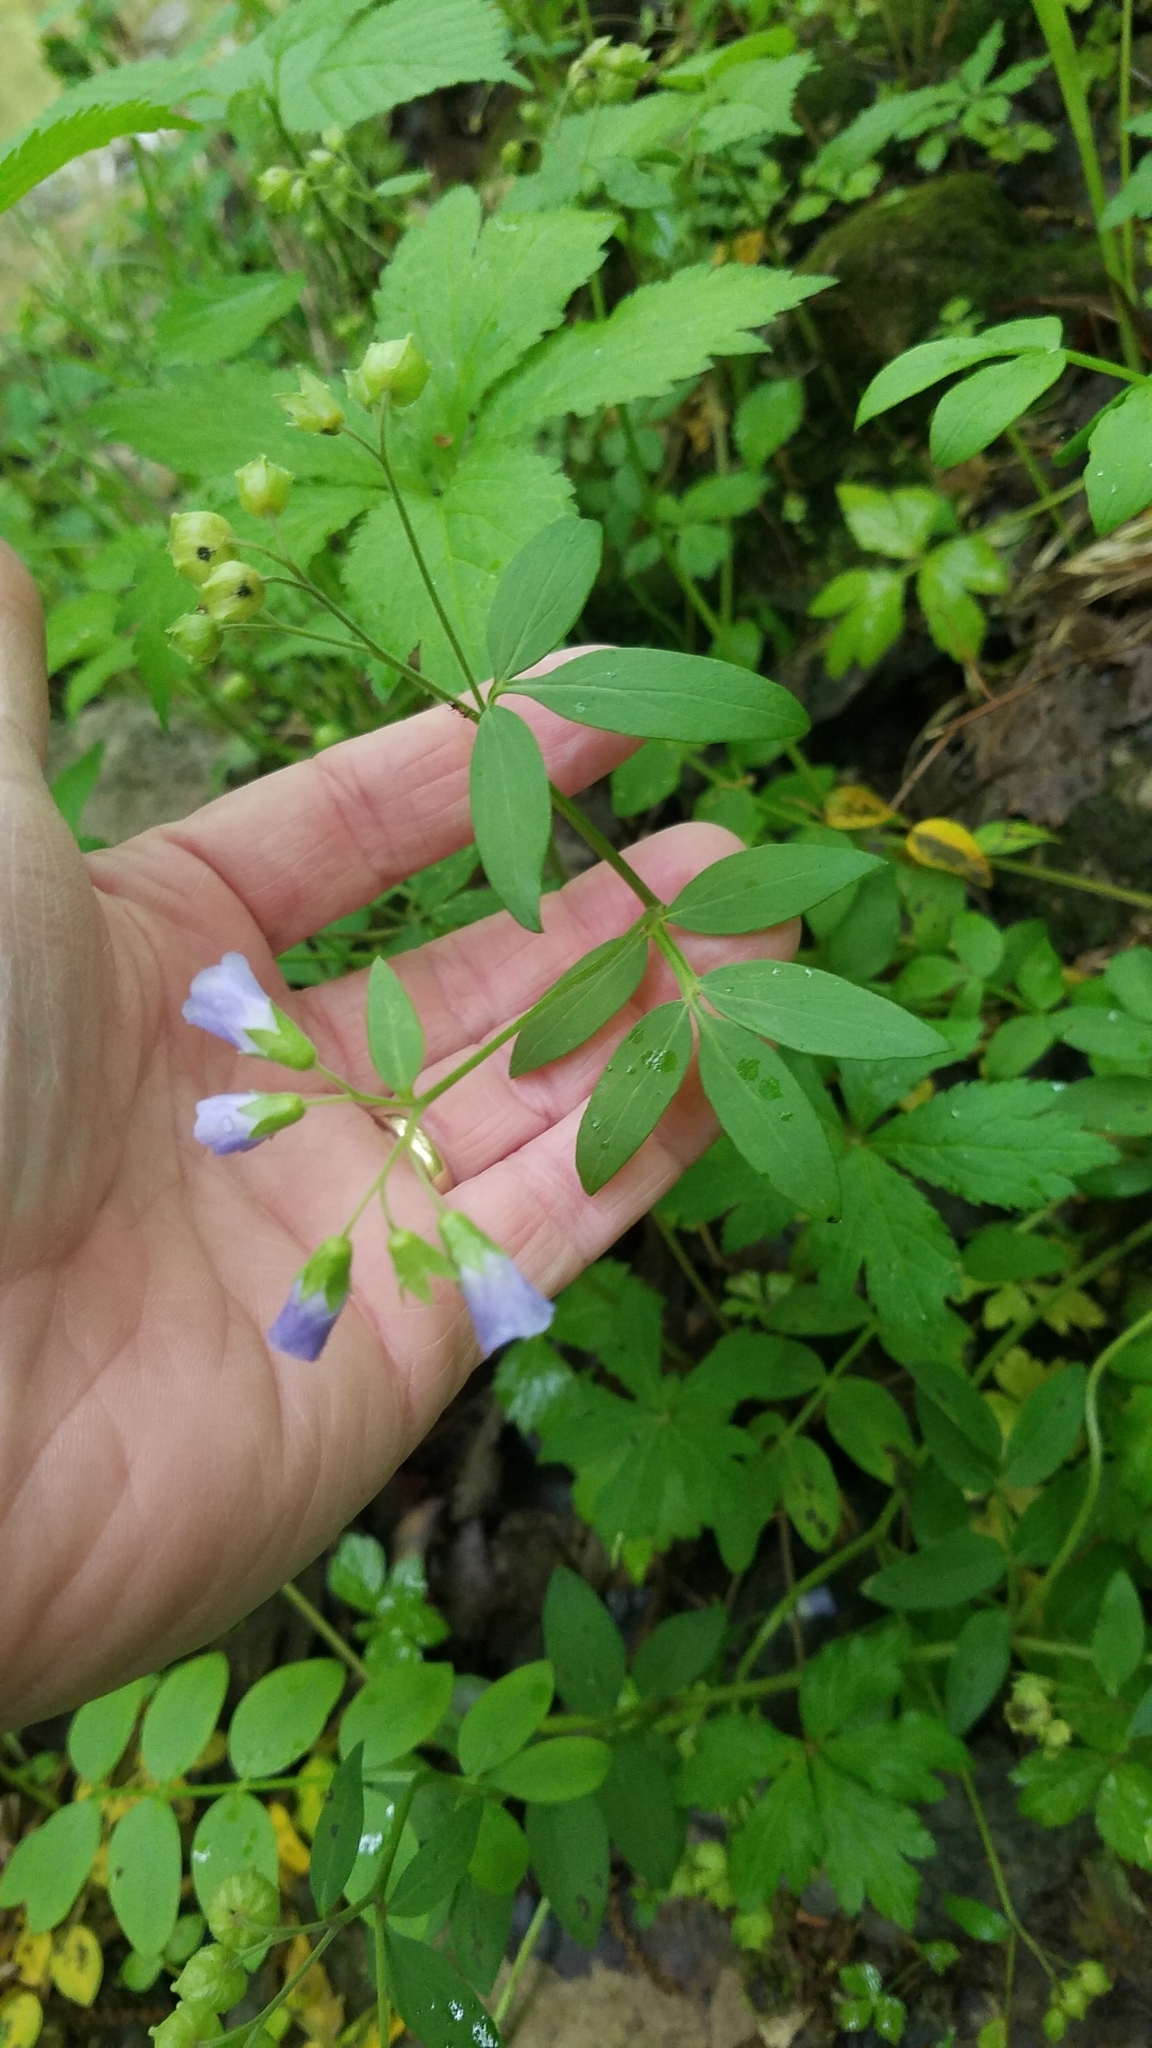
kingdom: Plantae
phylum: Tracheophyta
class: Magnoliopsida
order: Ericales
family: Polemoniaceae
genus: Polemonium
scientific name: Polemonium reptans
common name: Creeping jacob's-ladder
